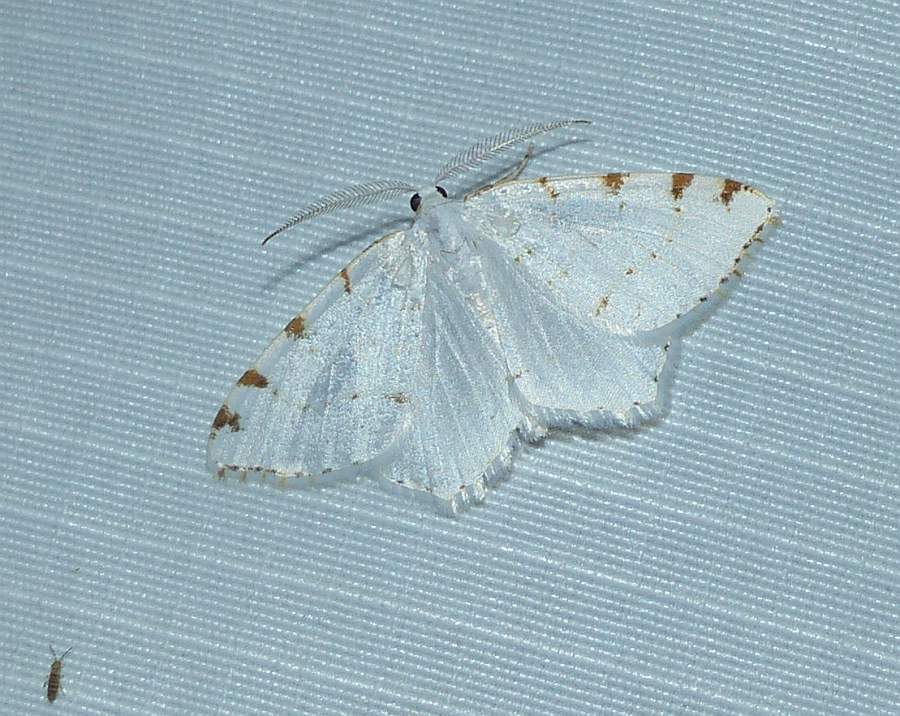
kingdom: Animalia
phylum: Arthropoda
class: Insecta
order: Lepidoptera
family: Geometridae
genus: Macaria
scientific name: Macaria pustularia
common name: Lesser maple spanworm moth
